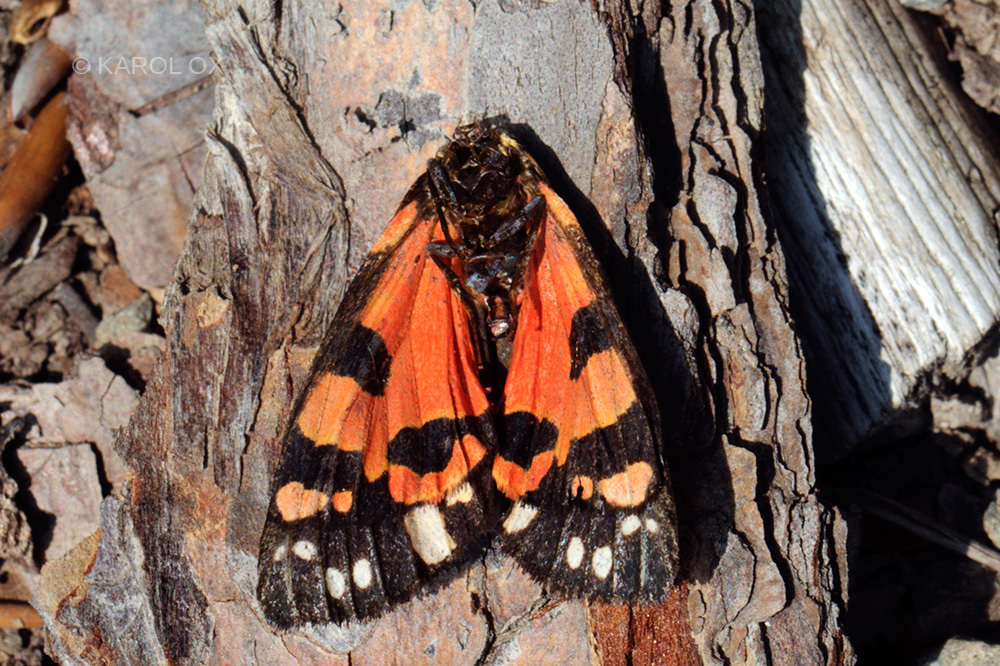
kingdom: Animalia
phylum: Arthropoda
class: Insecta
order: Lepidoptera
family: Erebidae
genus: Callimorpha
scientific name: Callimorpha dominula
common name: Scarlet tiger
